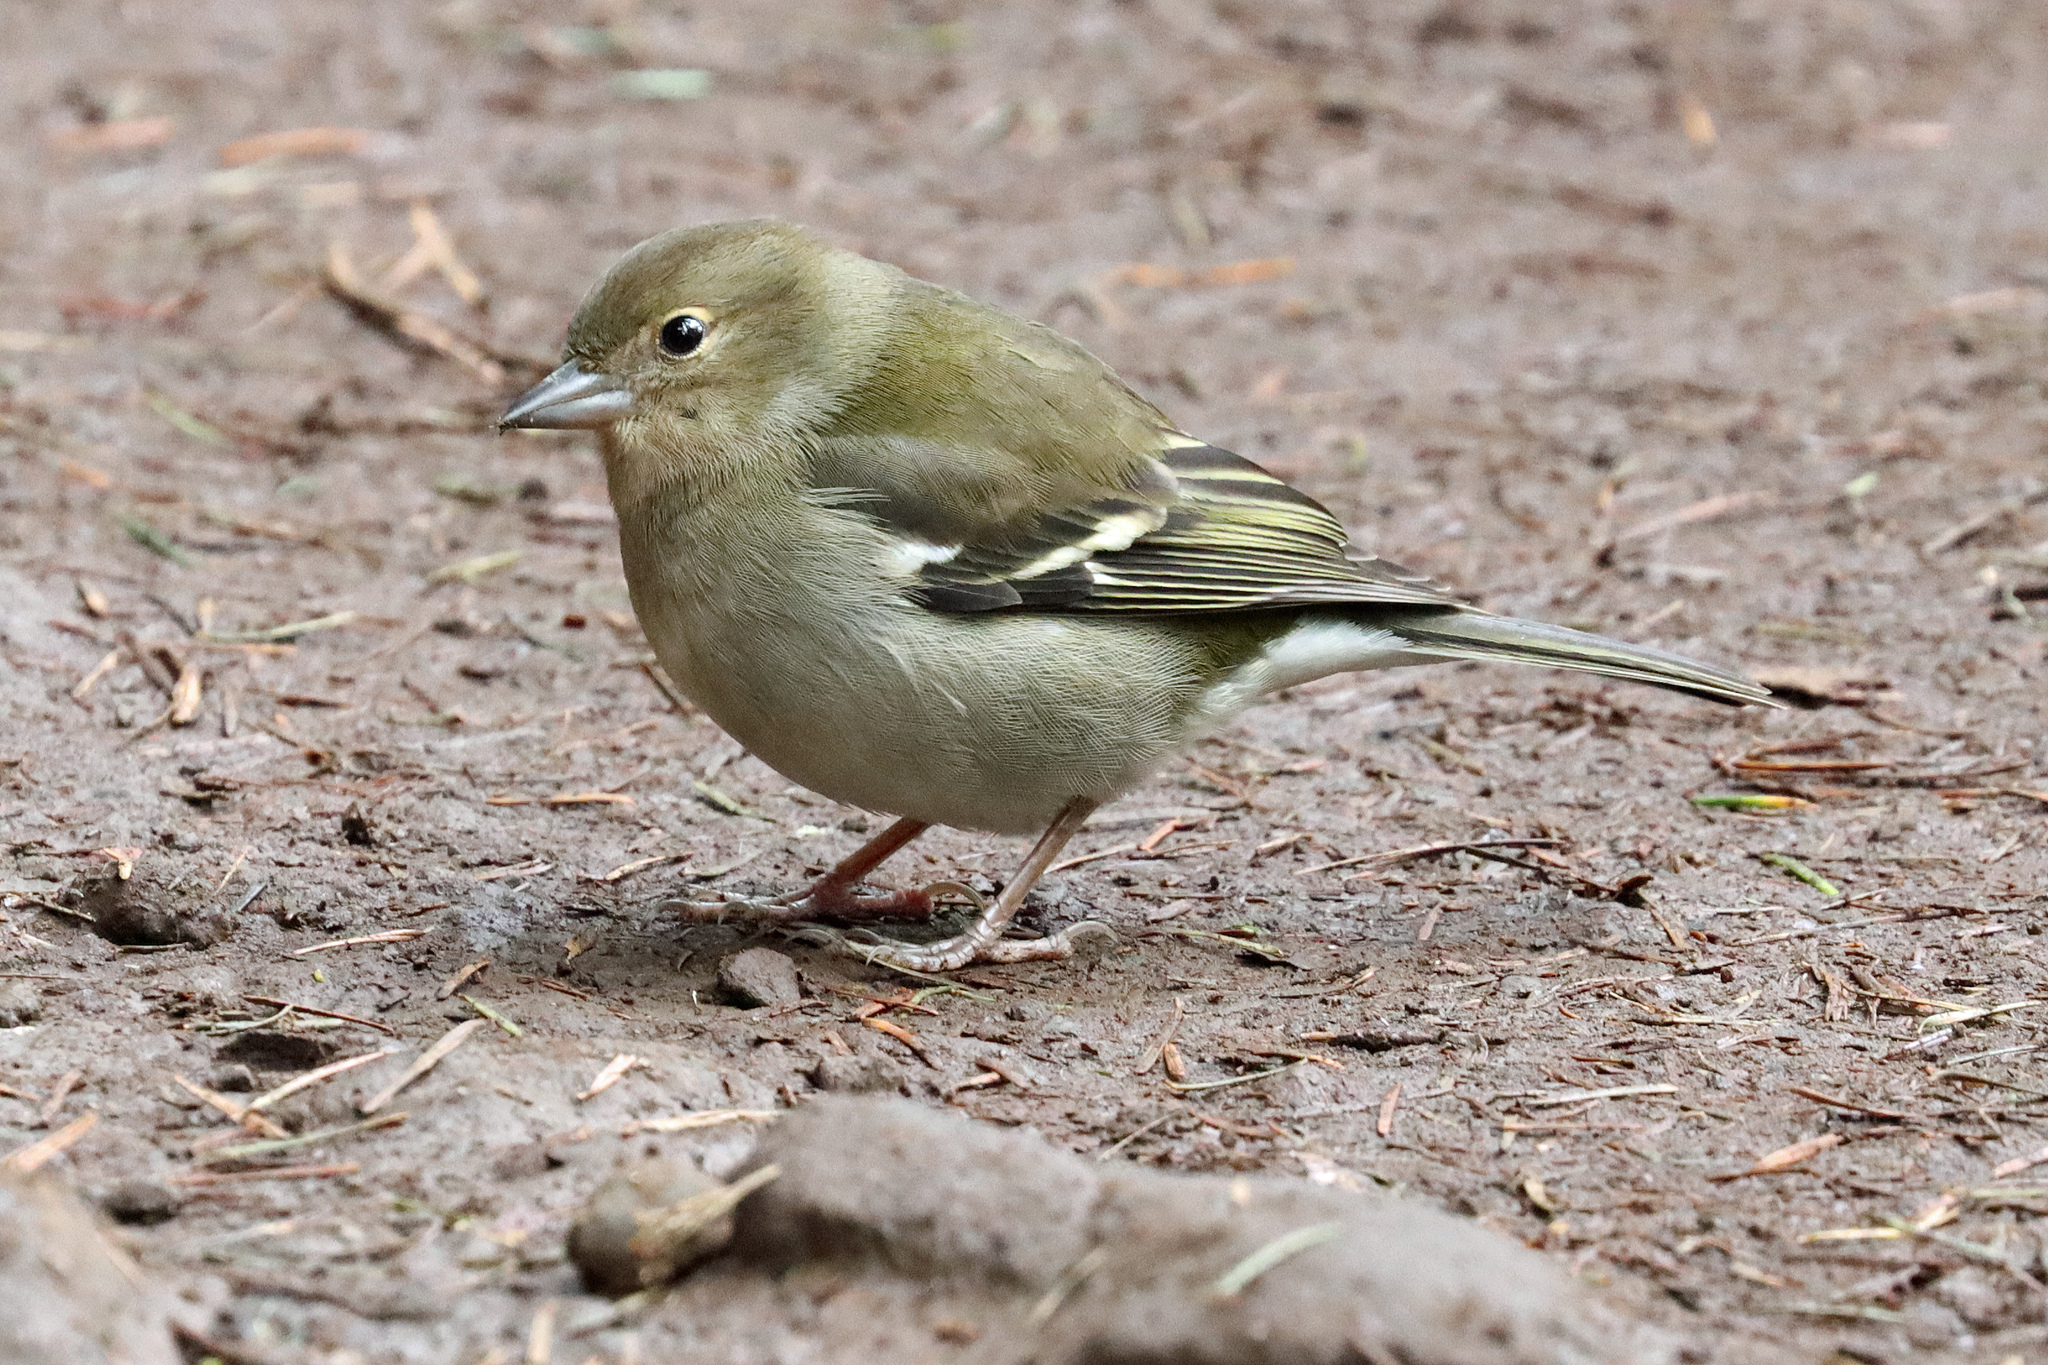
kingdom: Animalia
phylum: Chordata
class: Aves
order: Passeriformes
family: Fringillidae
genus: Fringilla
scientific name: Fringilla maderensis
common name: Madeira chaffinch
